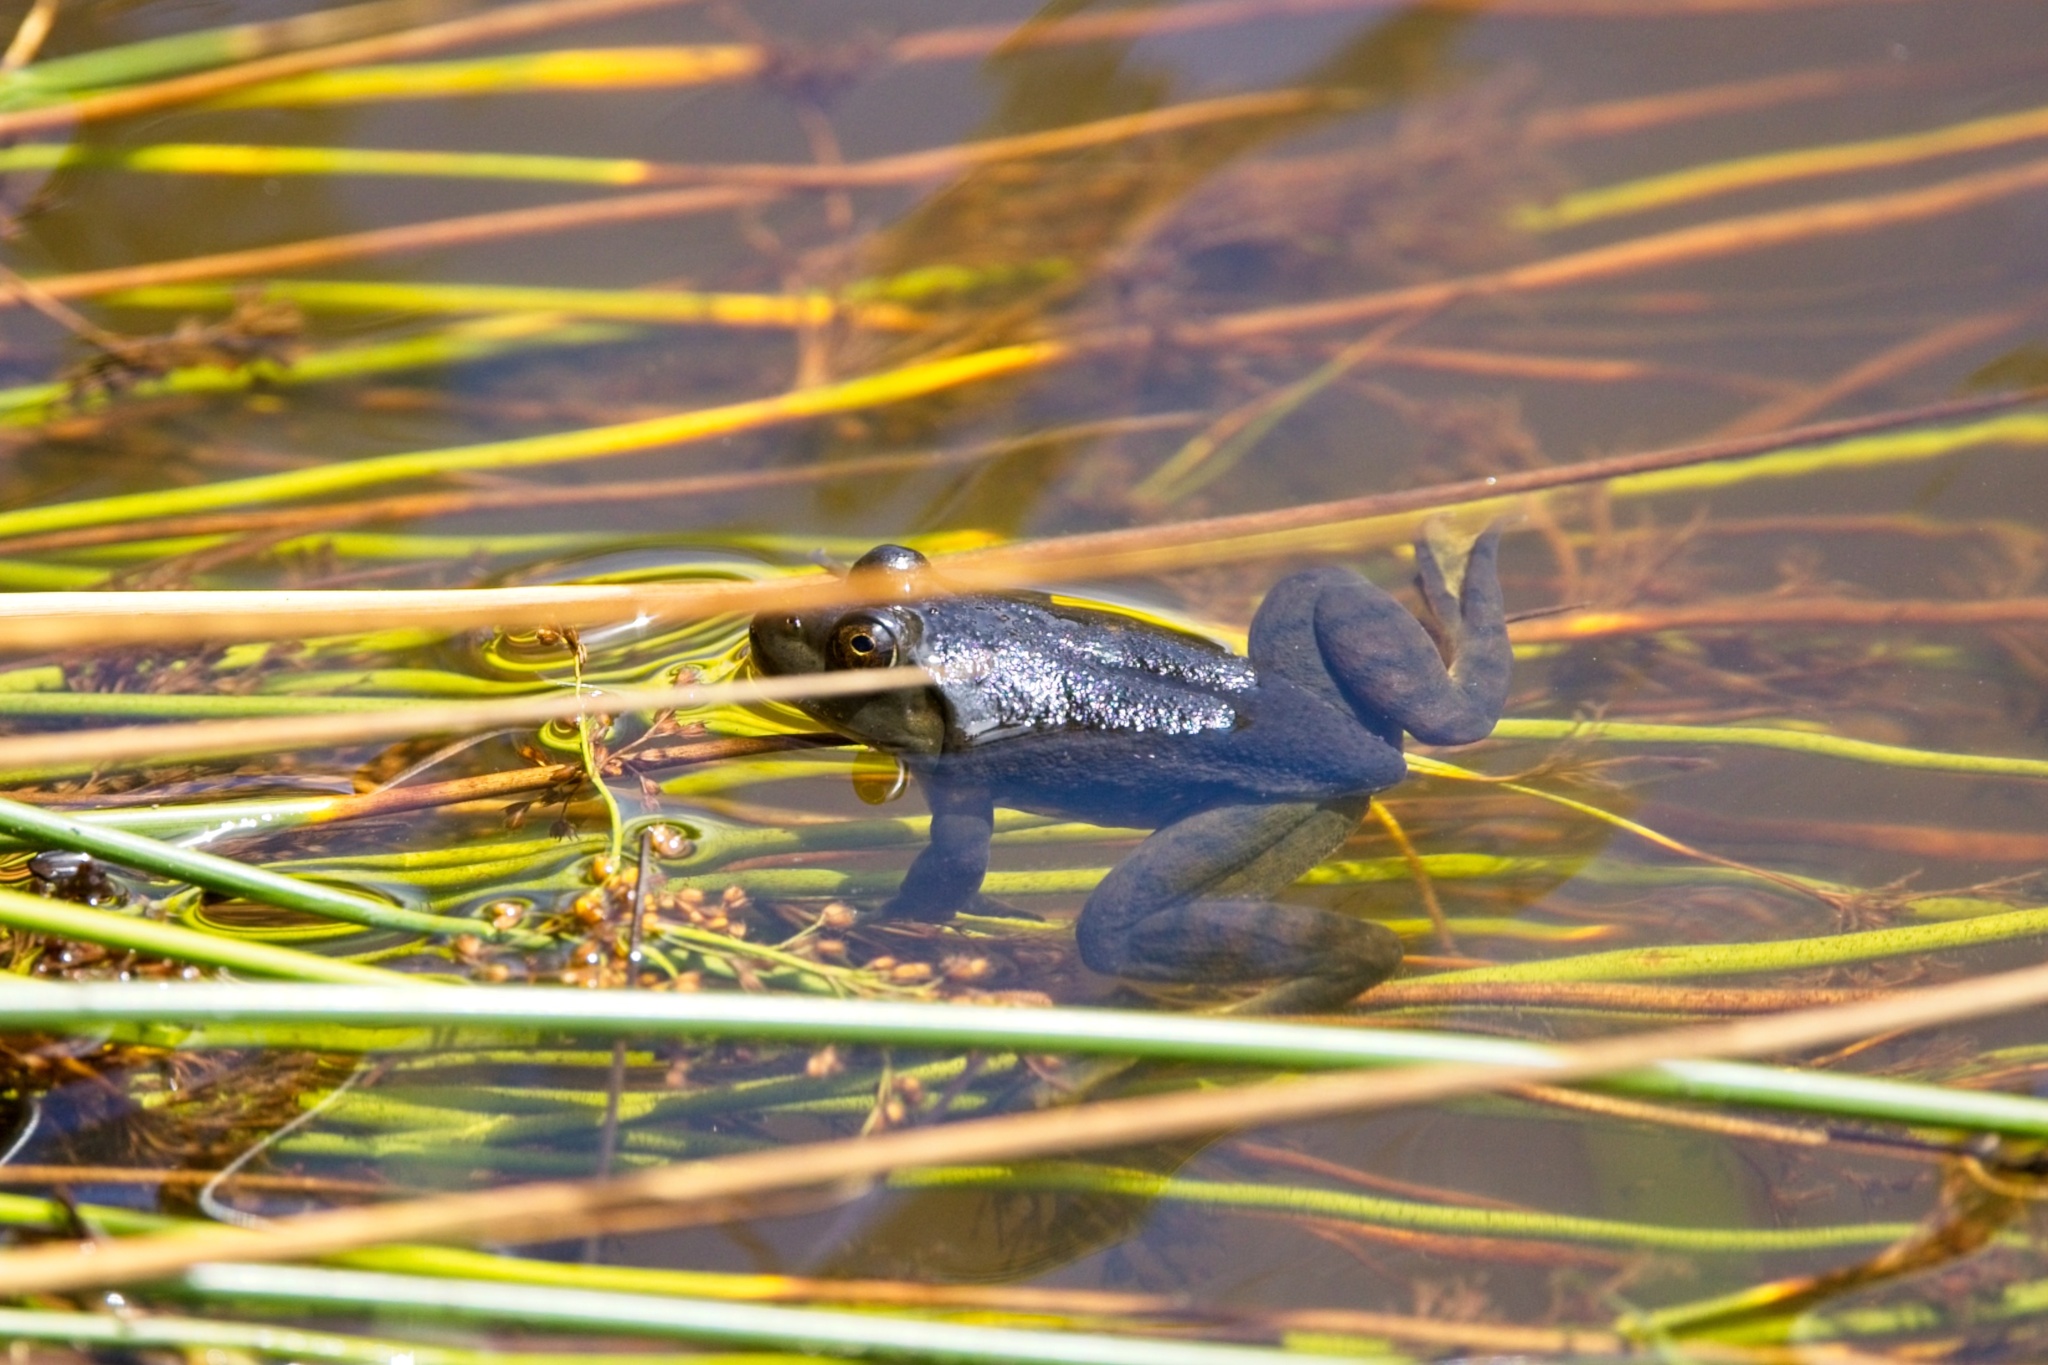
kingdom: Animalia
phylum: Chordata
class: Amphibia
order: Anura
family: Ranidae
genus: Lithobates
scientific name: Lithobates catesbeianus
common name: American bullfrog
